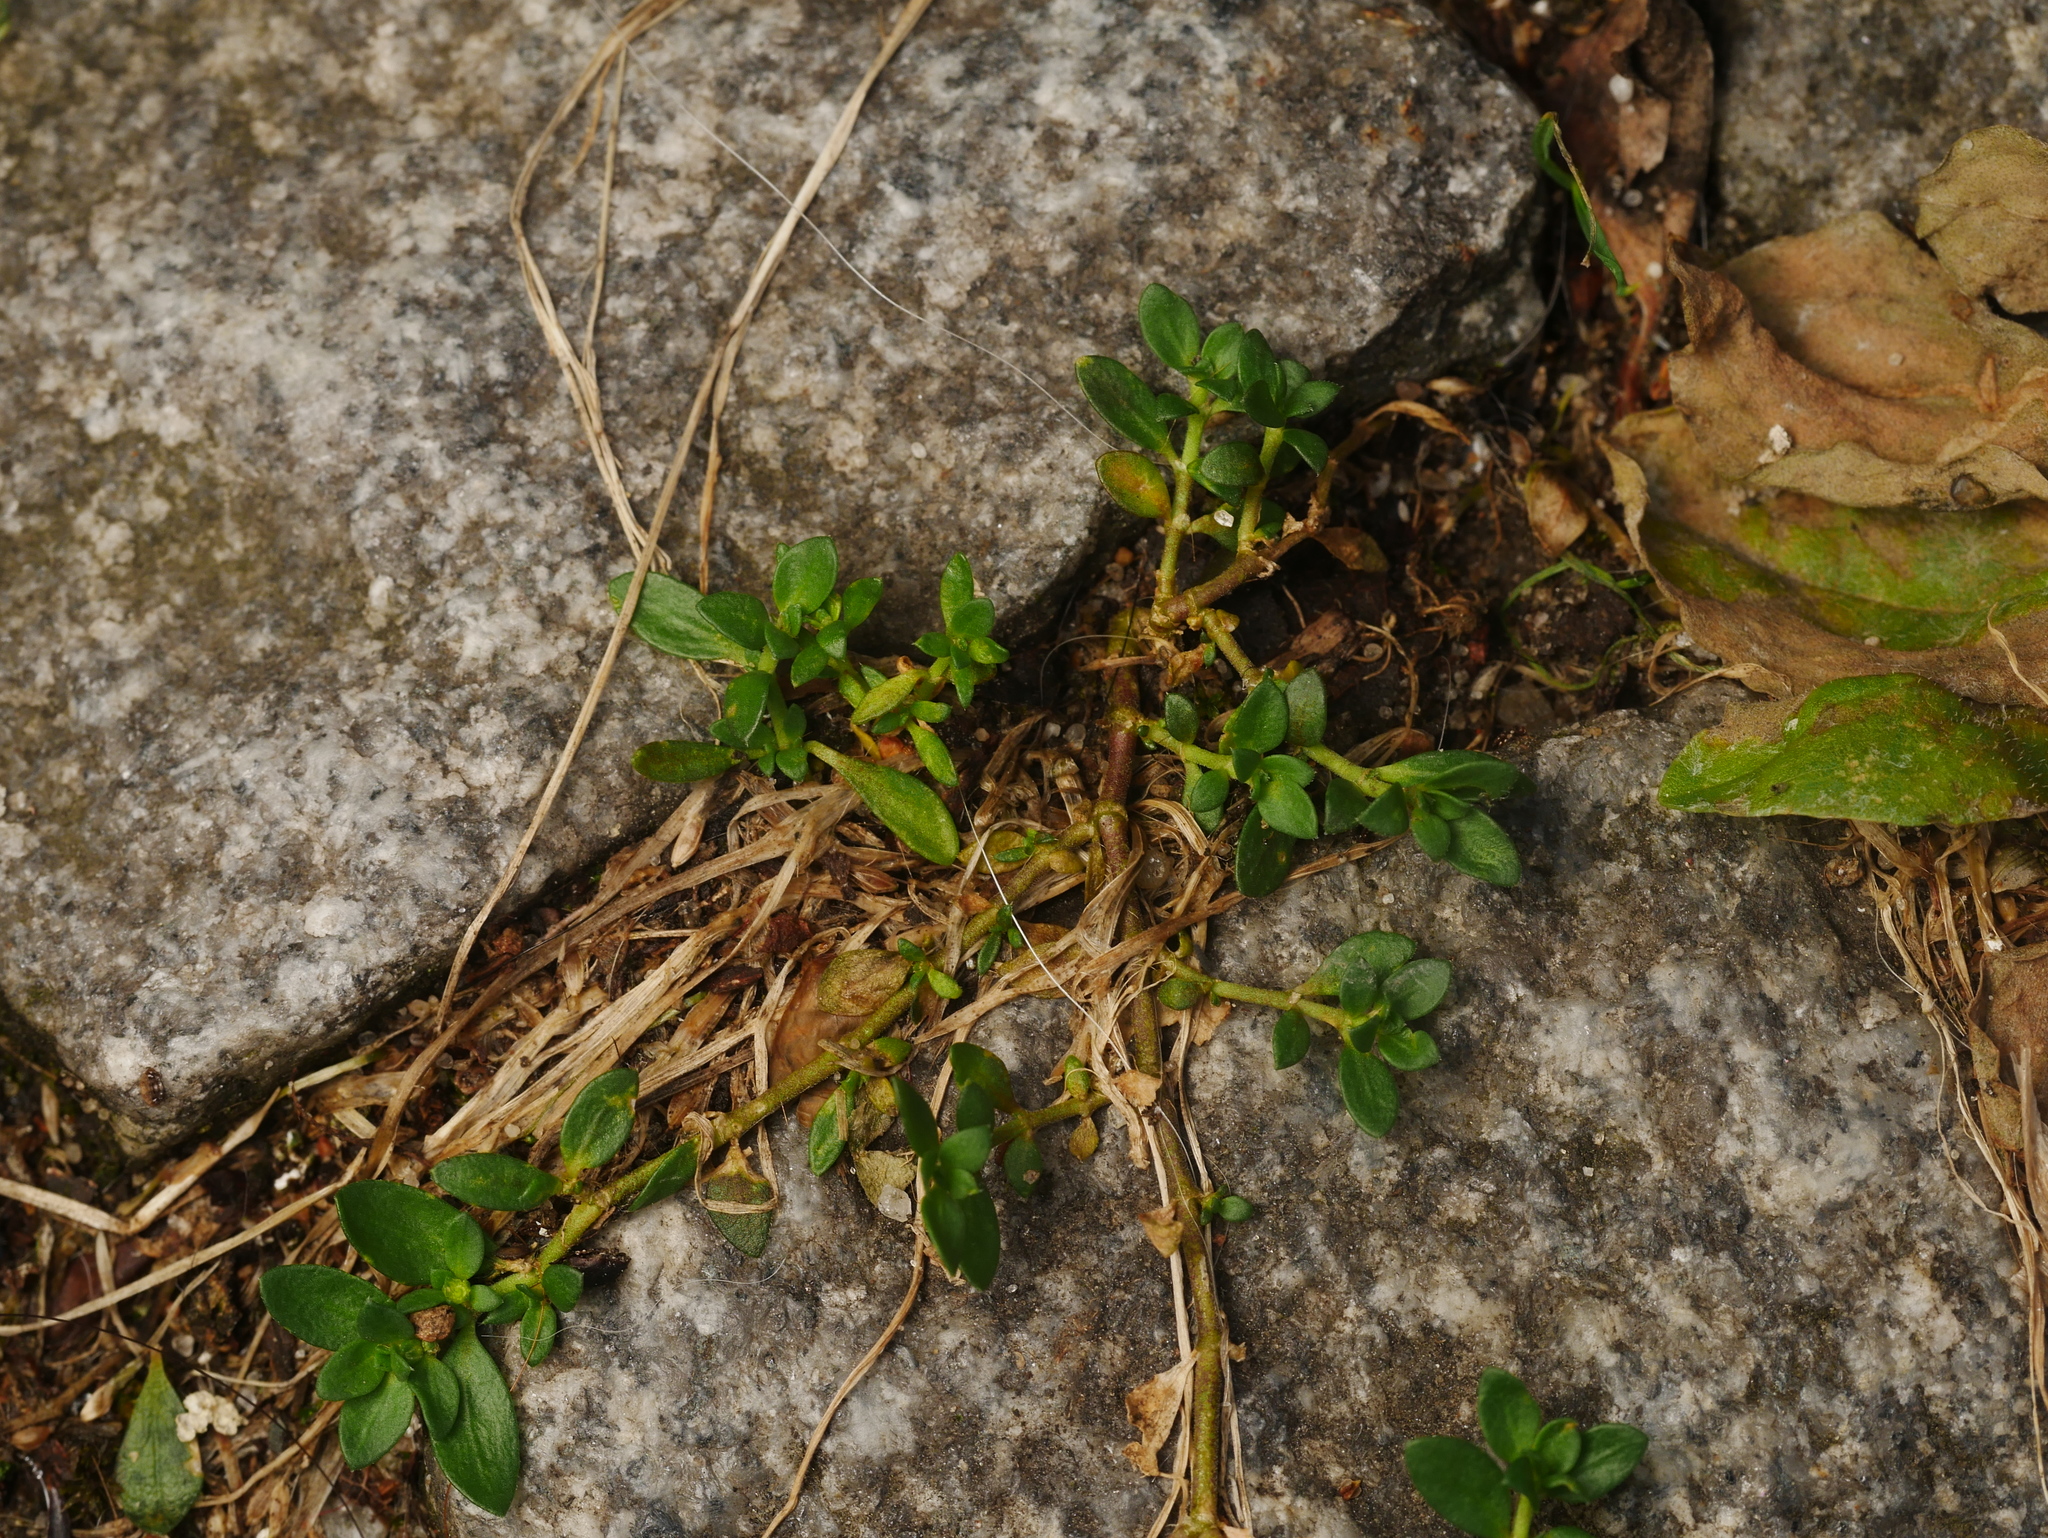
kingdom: Plantae
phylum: Tracheophyta
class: Magnoliopsida
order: Caryophyllales
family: Caryophyllaceae
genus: Herniaria
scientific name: Herniaria glabra
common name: Smooth rupturewort
